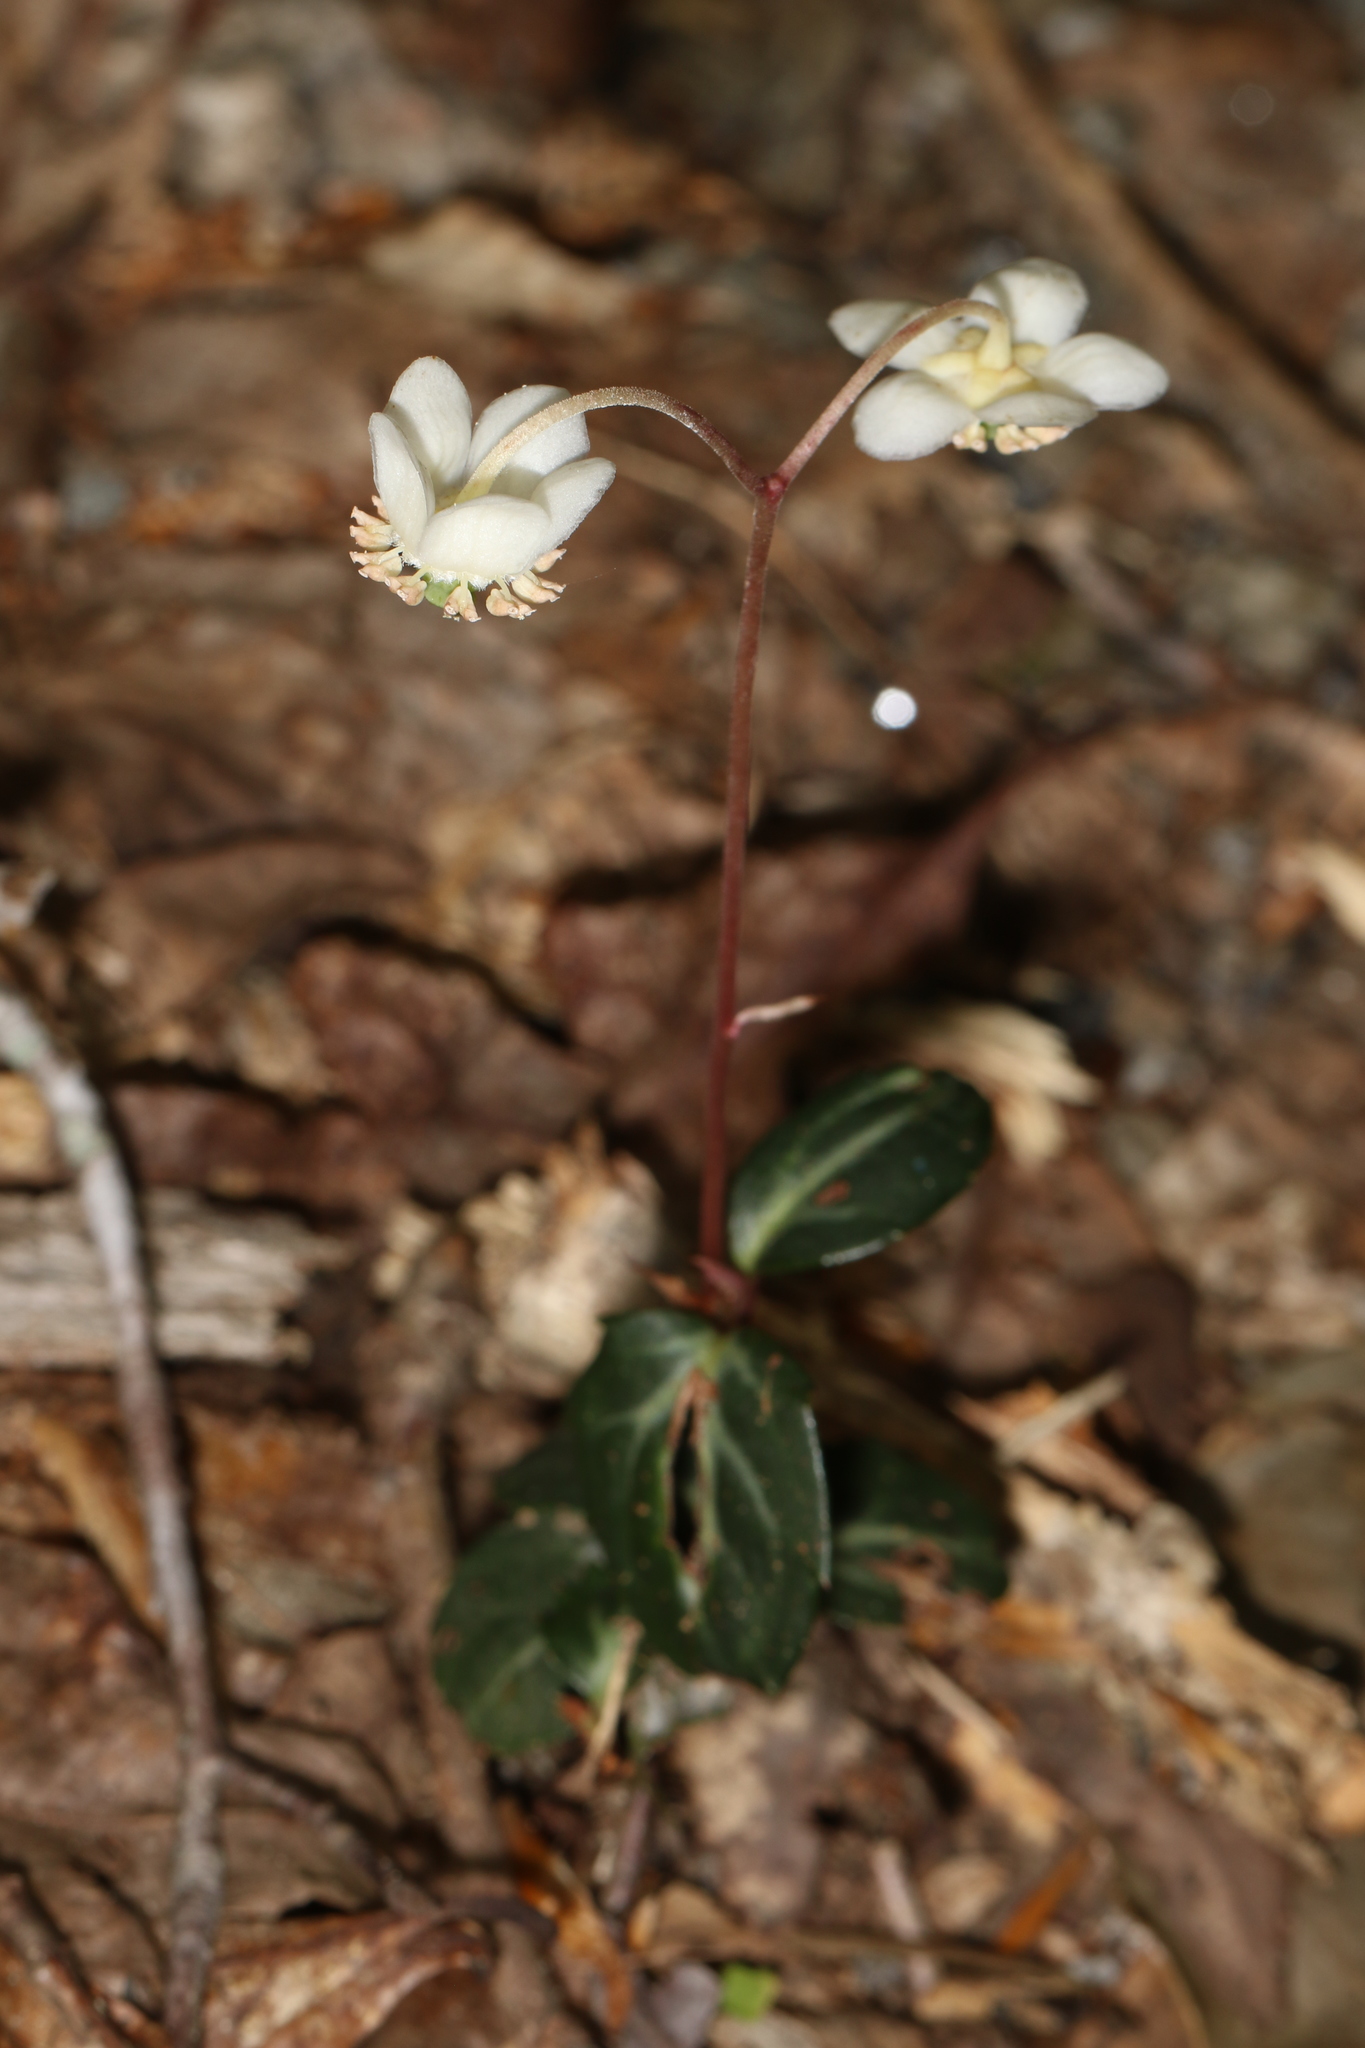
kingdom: Plantae
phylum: Tracheophyta
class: Magnoliopsida
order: Ericales
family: Ericaceae
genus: Chimaphila
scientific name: Chimaphila maculata
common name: Spotted pipsissewa
